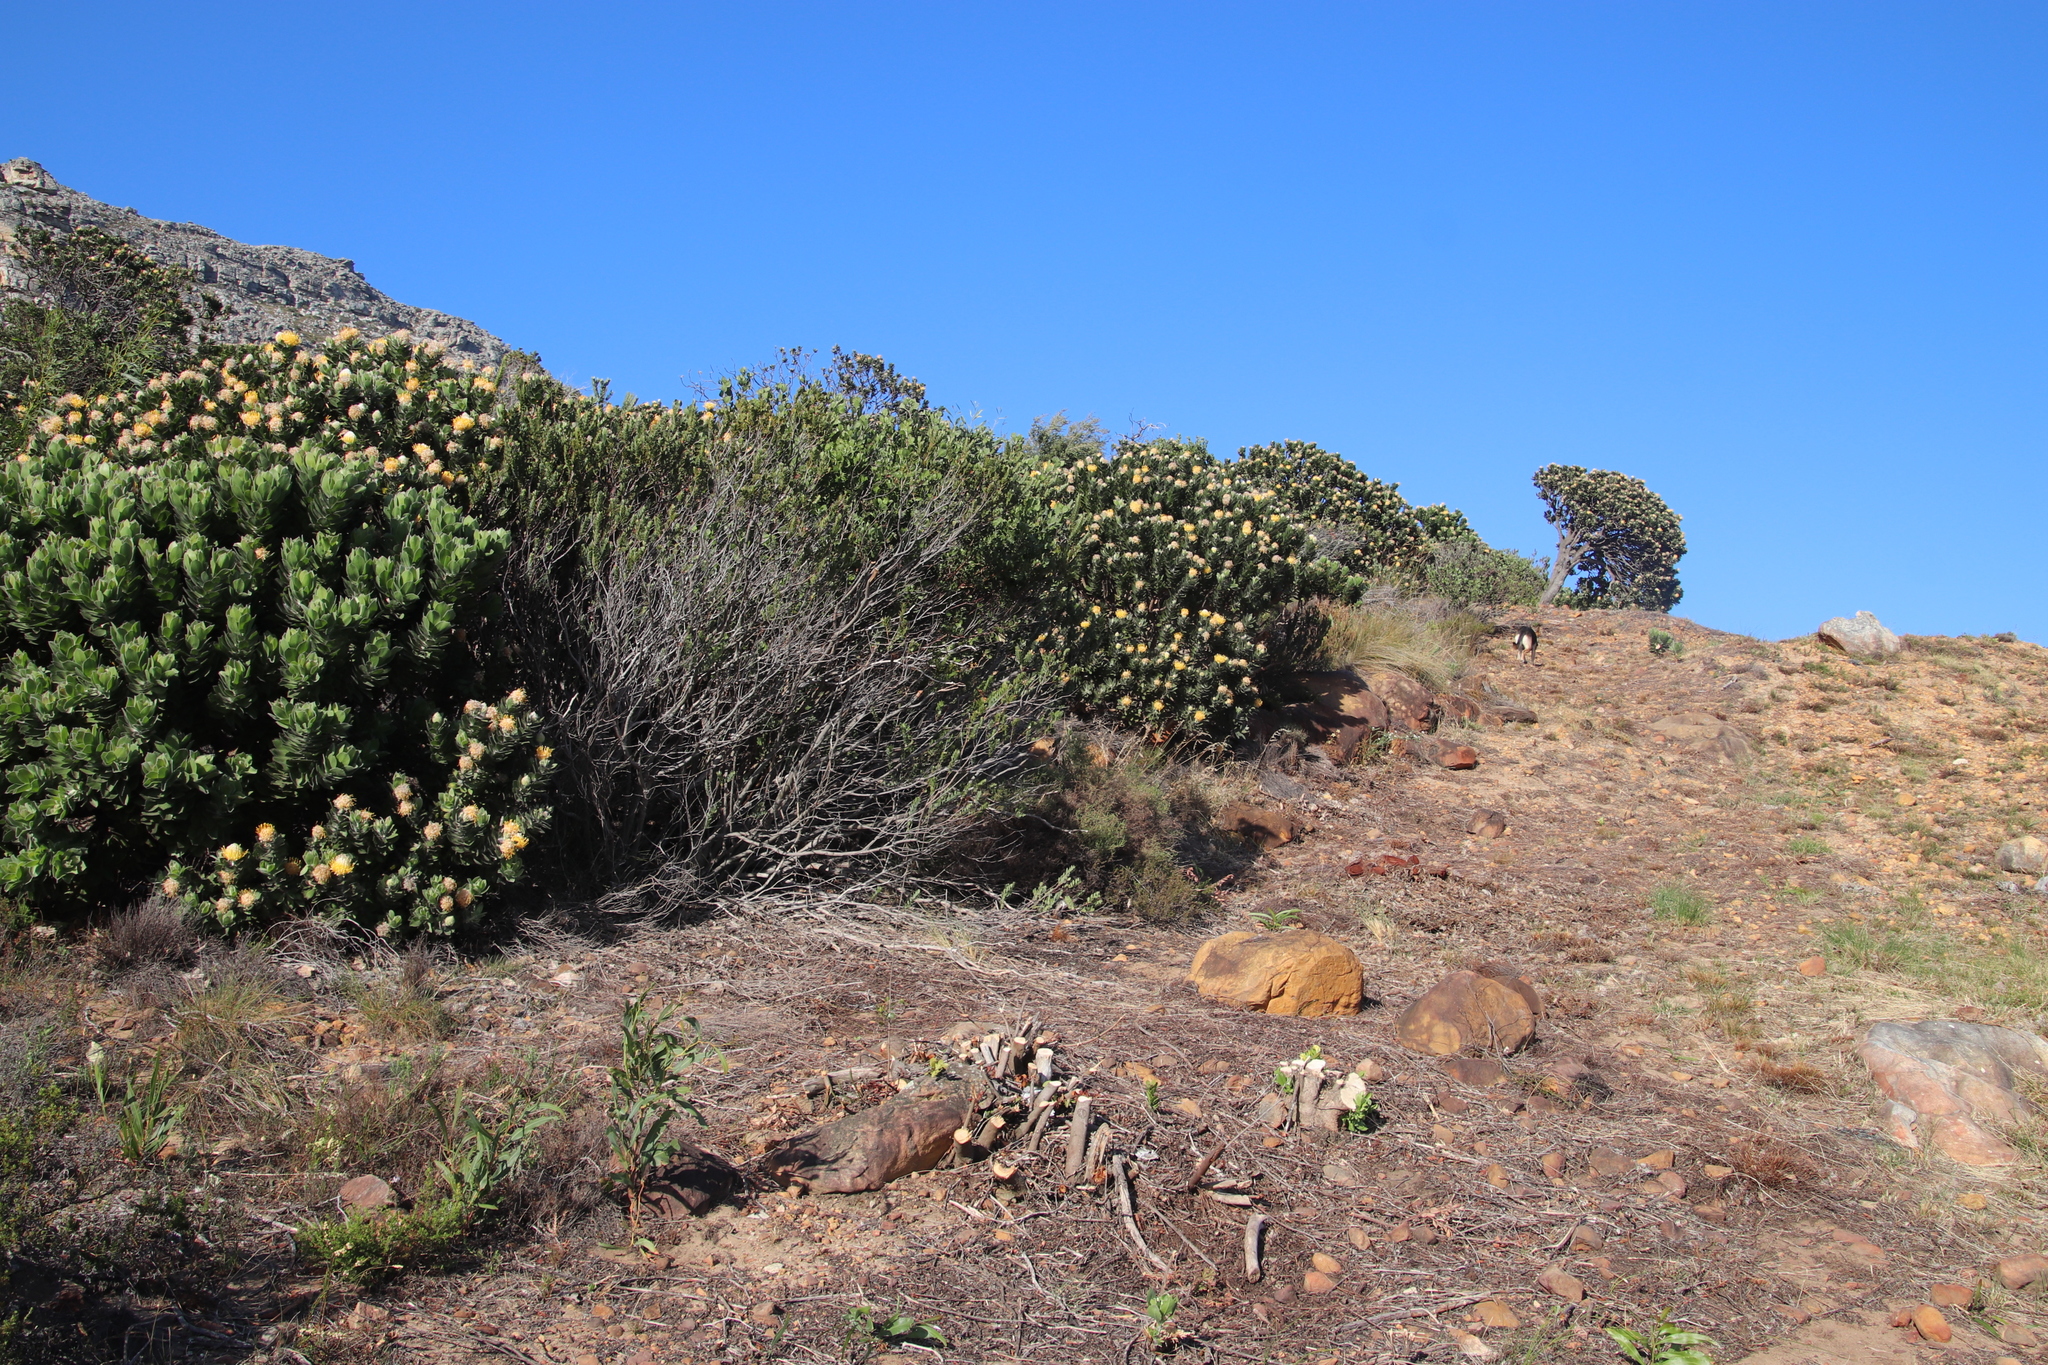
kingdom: Plantae
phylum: Tracheophyta
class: Magnoliopsida
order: Proteales
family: Proteaceae
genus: Leucospermum
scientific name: Leucospermum conocarpodendron
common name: Tree pincushion
